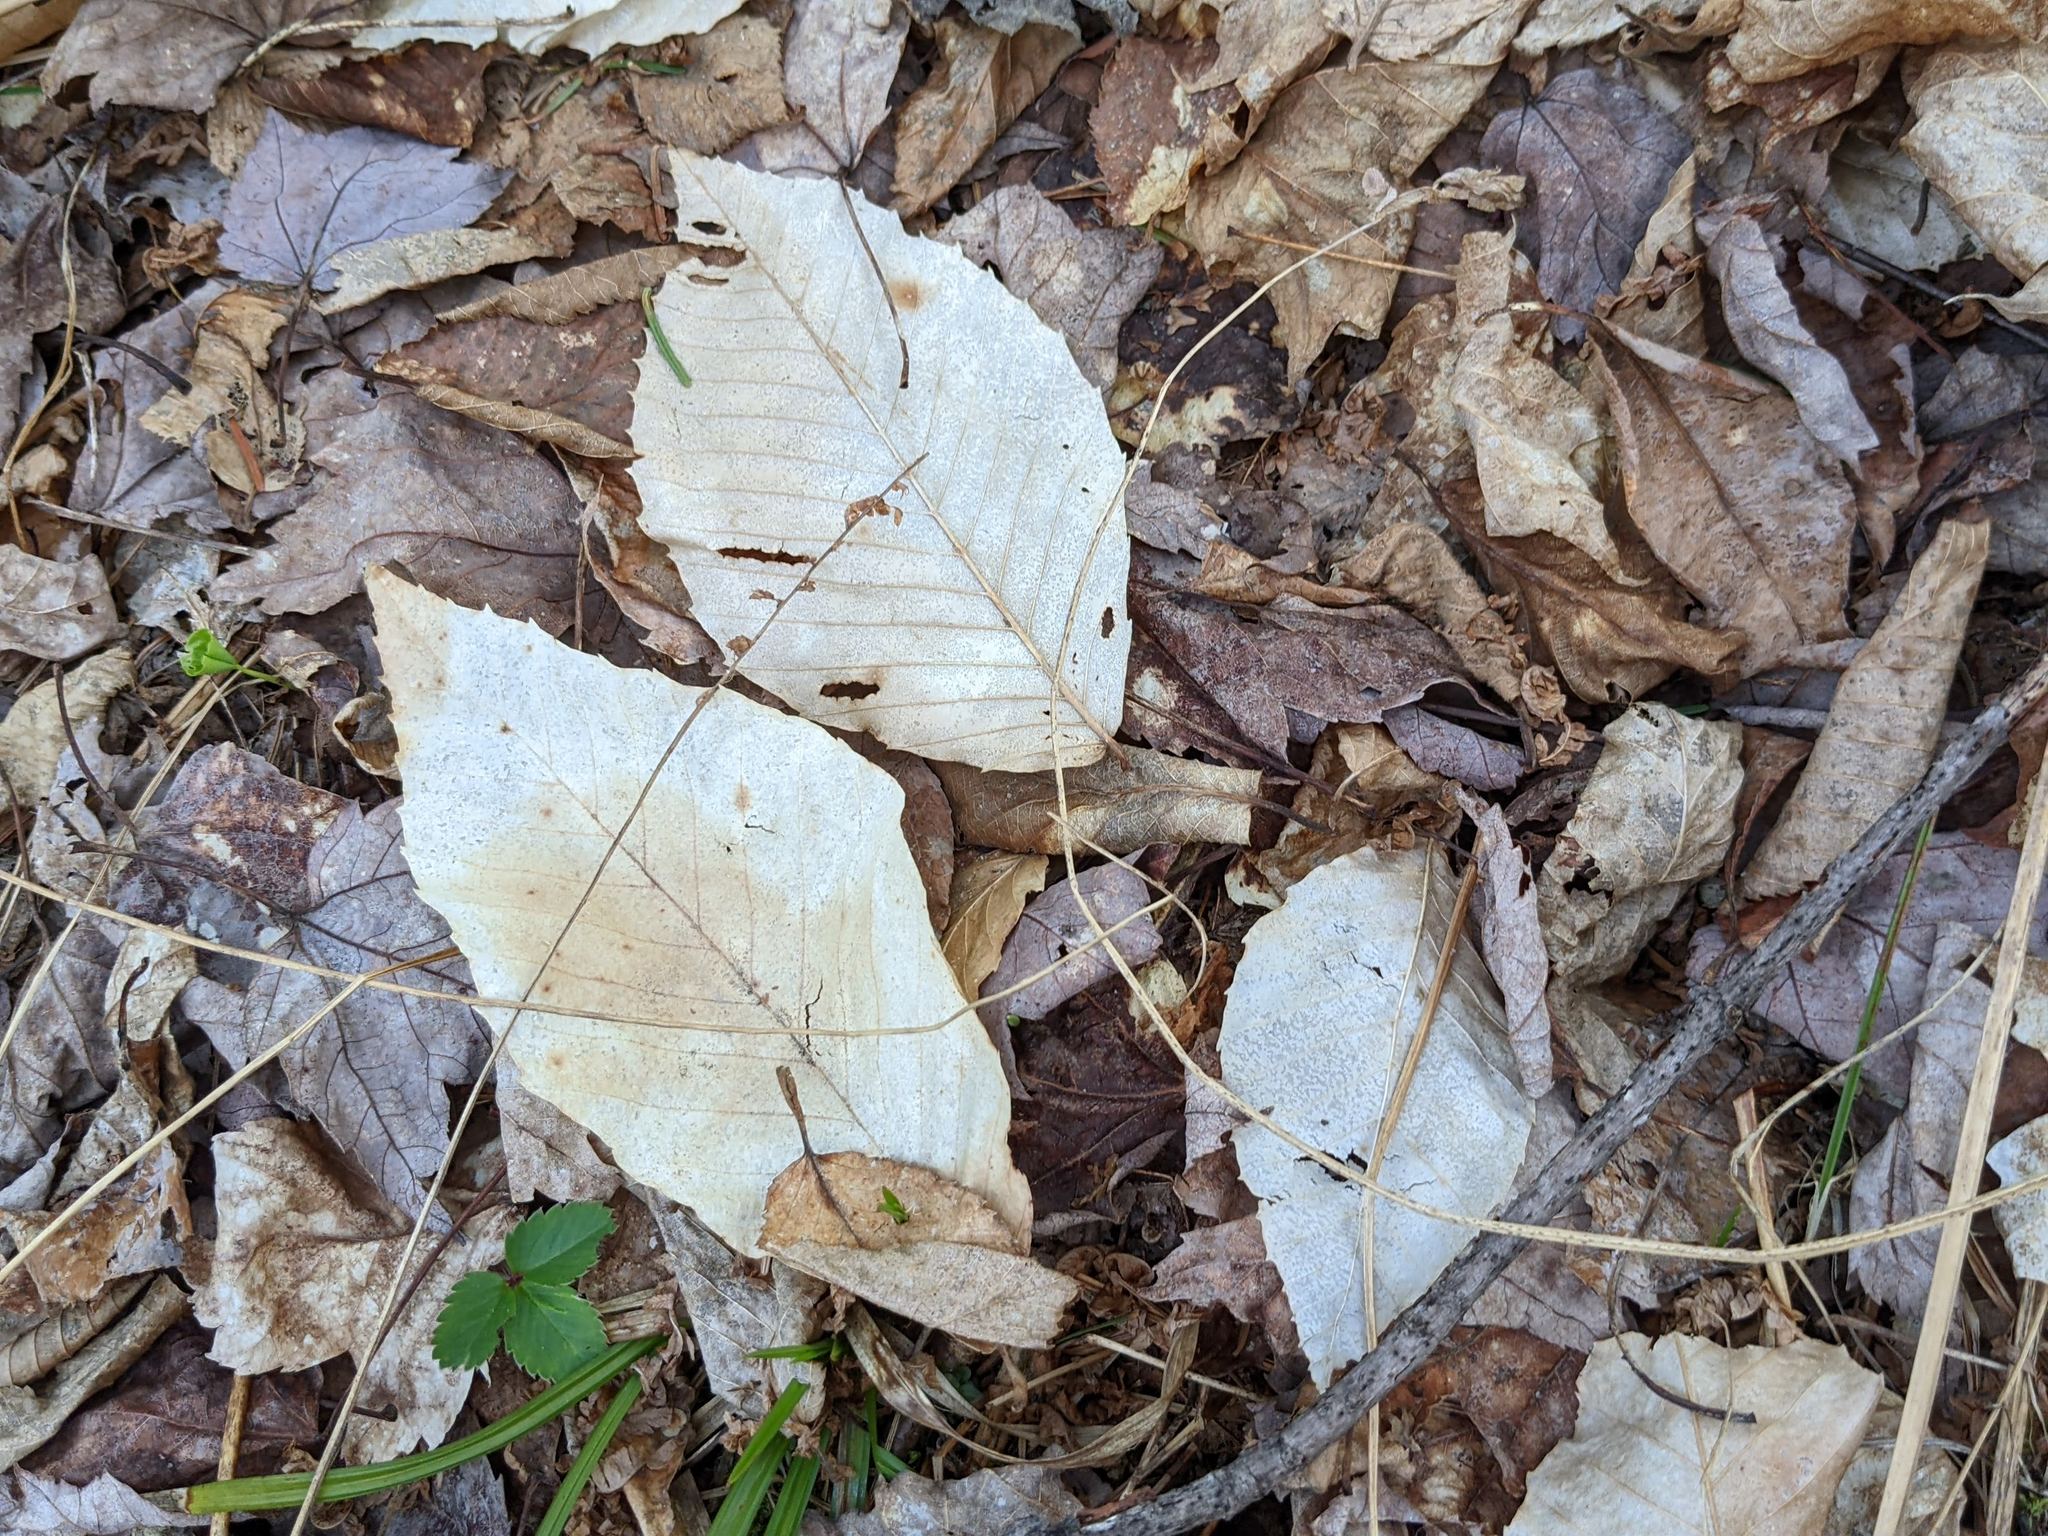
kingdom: Plantae
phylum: Tracheophyta
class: Magnoliopsida
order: Fagales
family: Fagaceae
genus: Fagus
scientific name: Fagus grandifolia
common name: American beech
